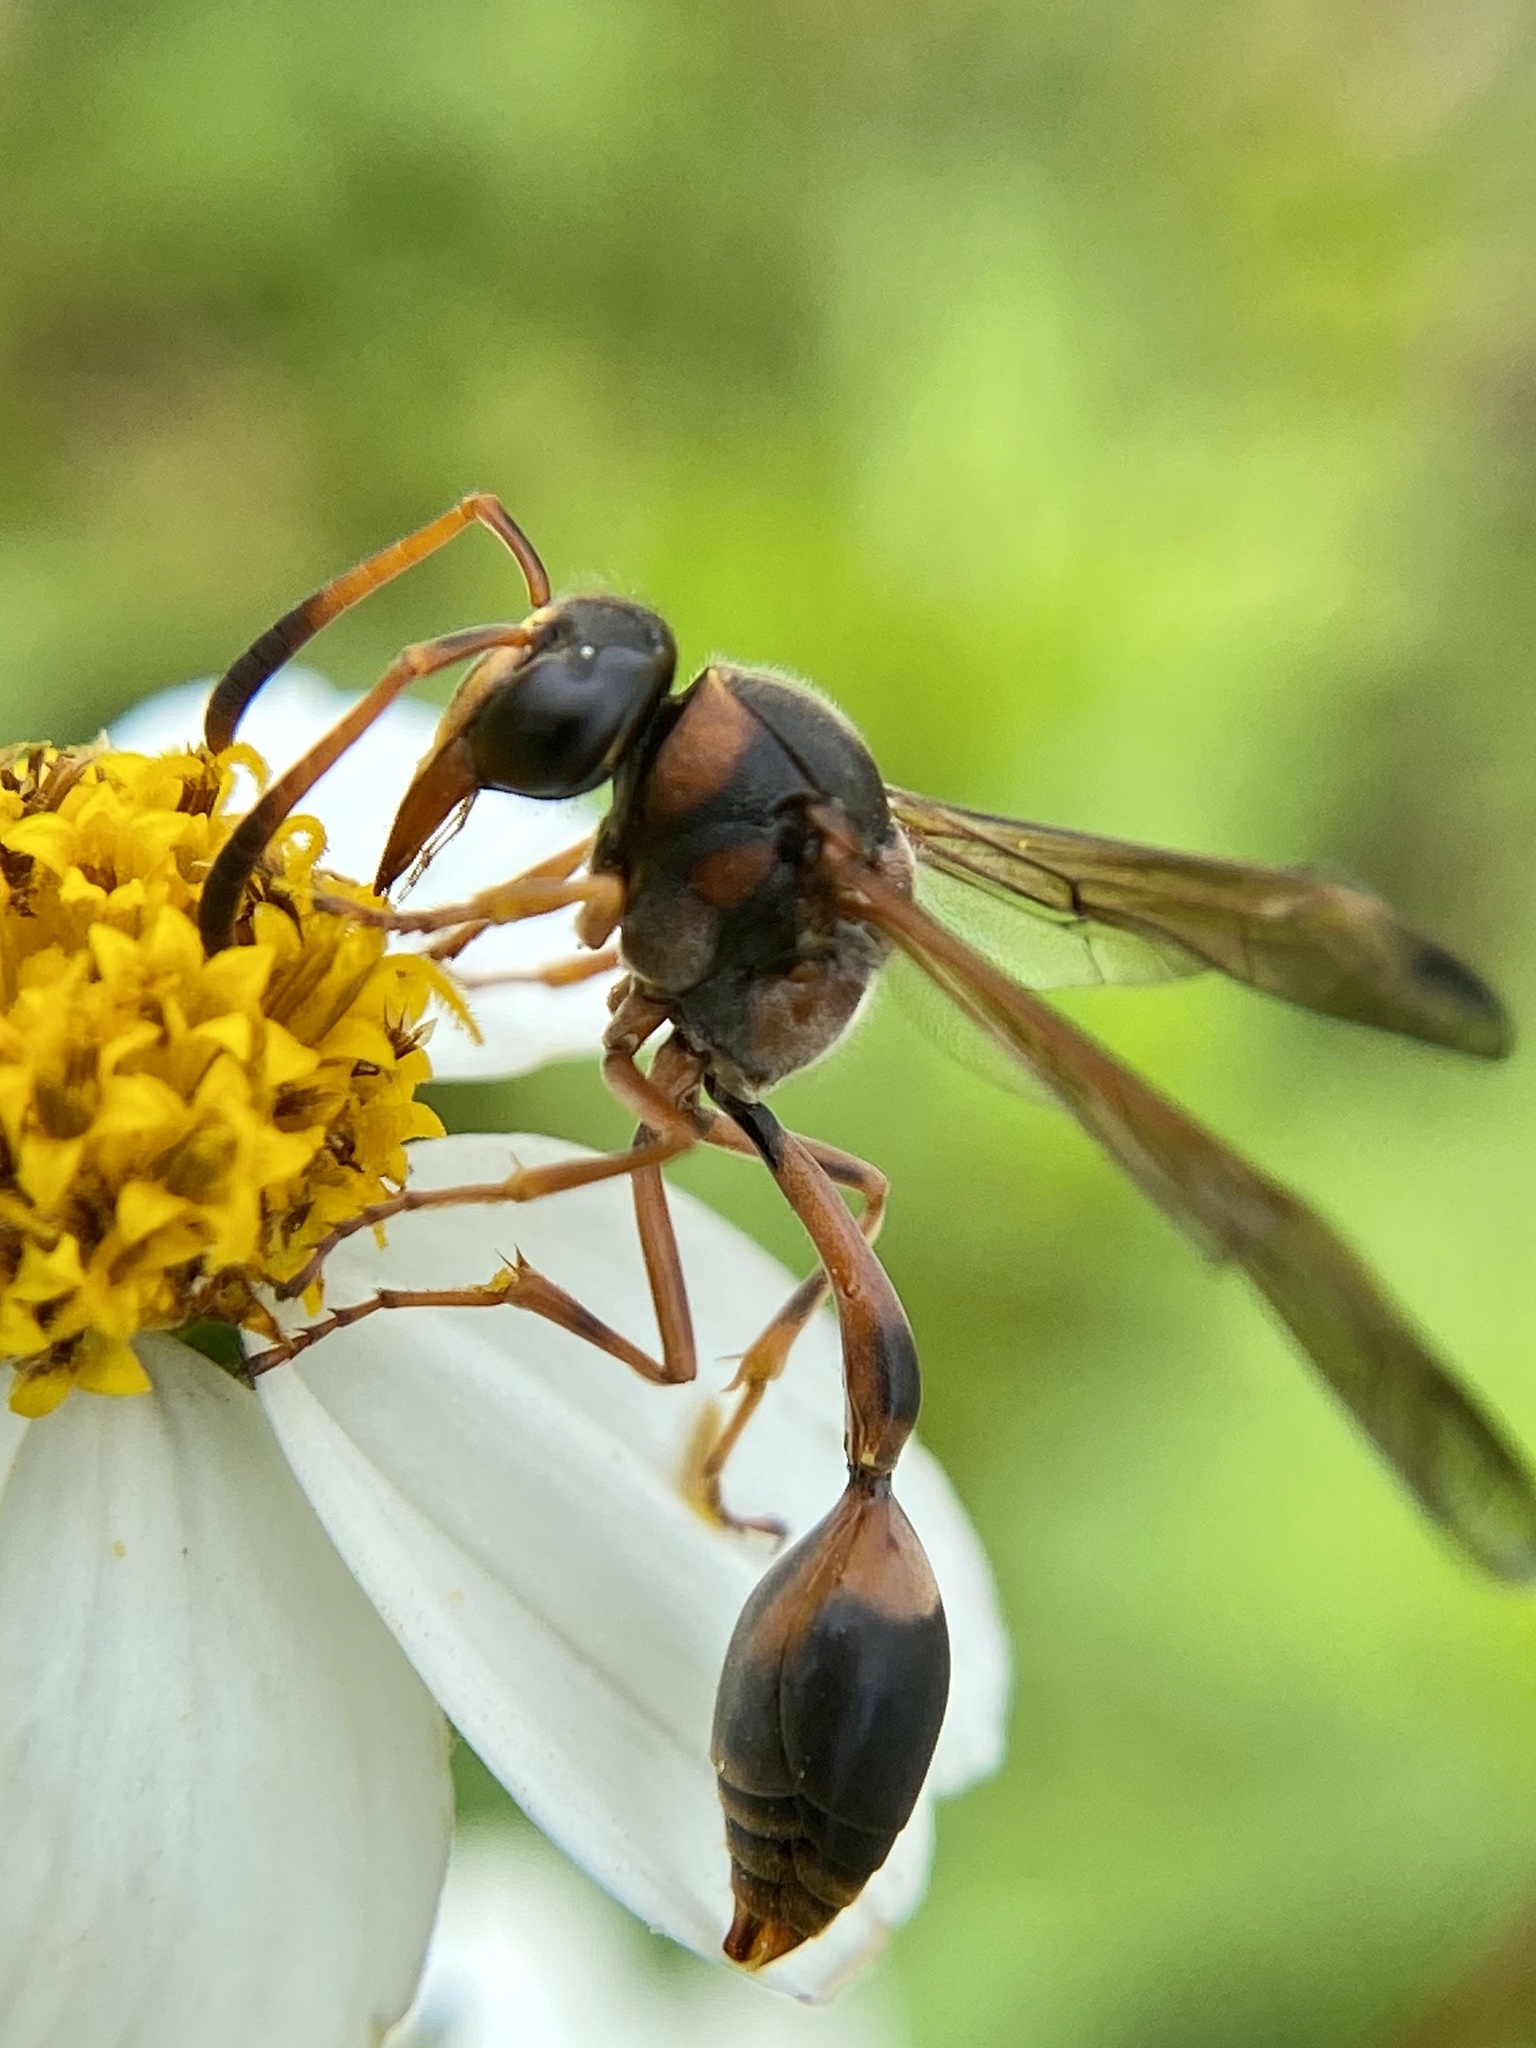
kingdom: Animalia
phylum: Arthropoda
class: Insecta
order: Hymenoptera
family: Eumenidae
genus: Delta
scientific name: Delta higletti
